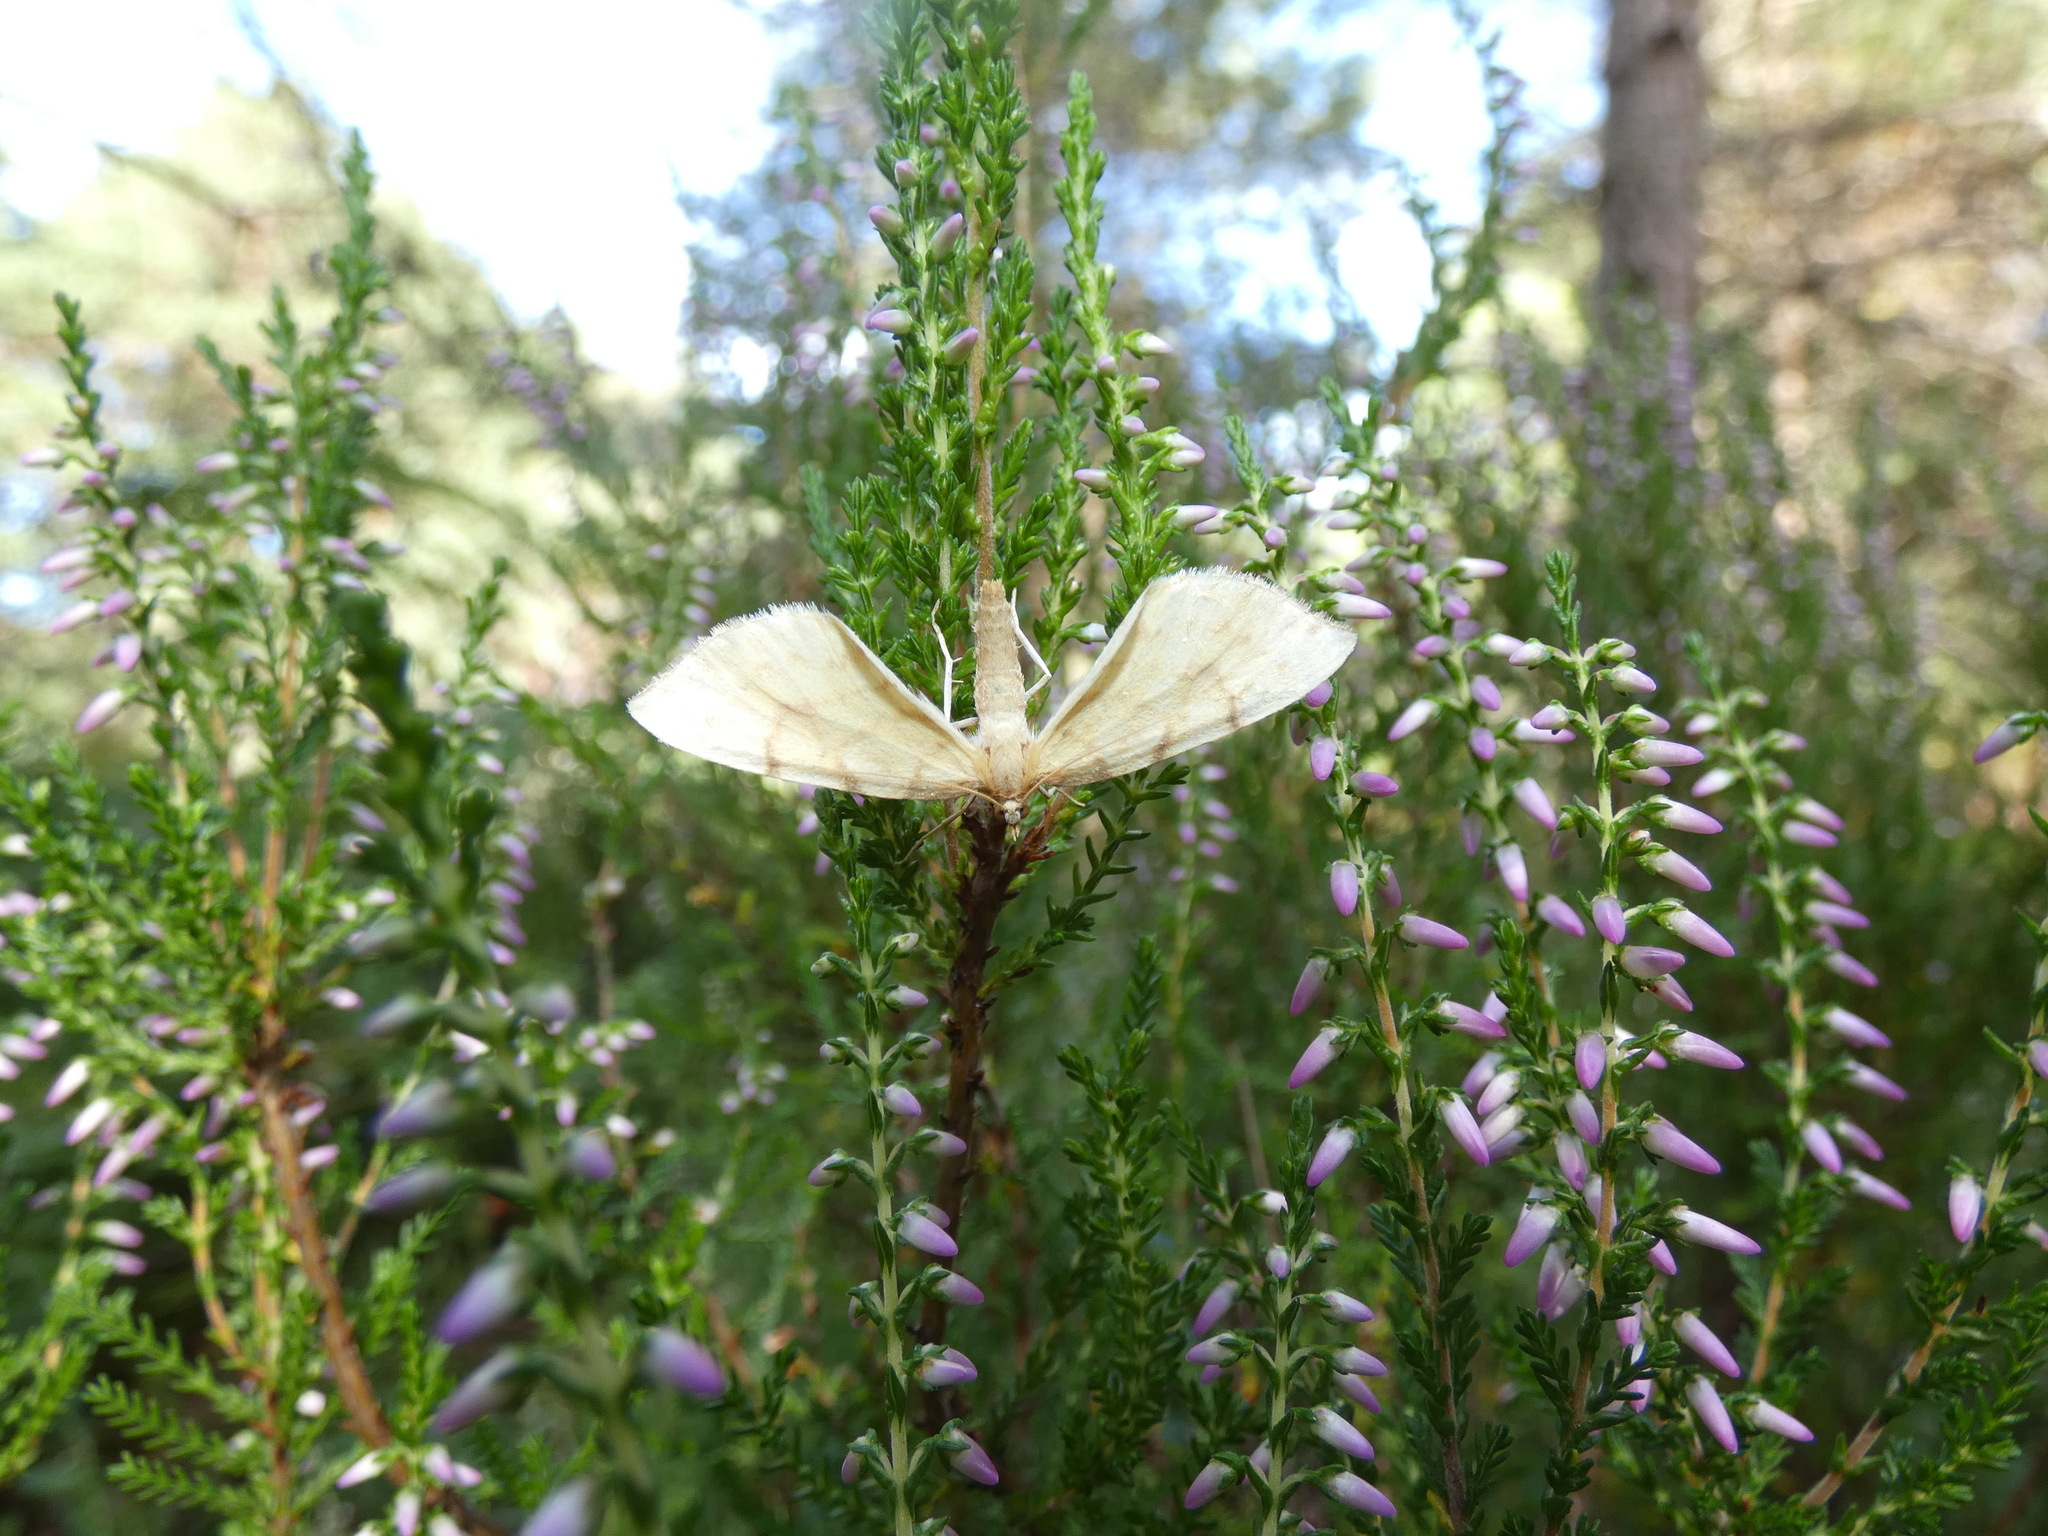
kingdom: Animalia
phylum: Arthropoda
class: Insecta
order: Lepidoptera
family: Geometridae
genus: Eulithis
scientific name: Eulithis pyraliata
